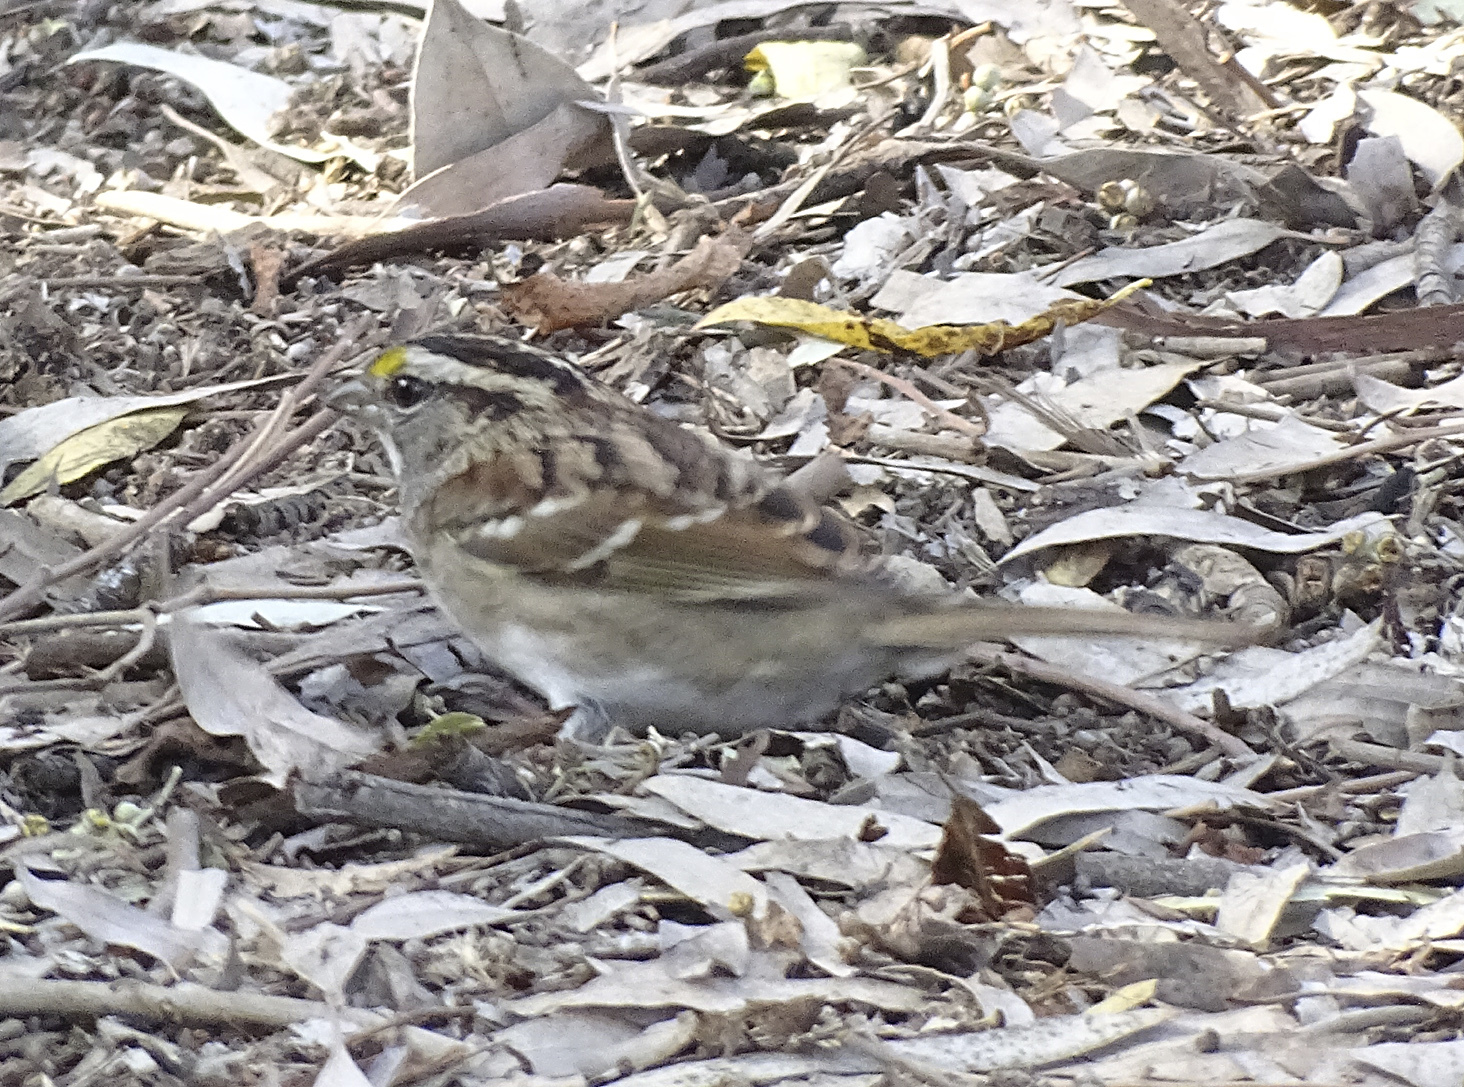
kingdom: Animalia
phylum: Chordata
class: Aves
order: Passeriformes
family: Passerellidae
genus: Zonotrichia
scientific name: Zonotrichia albicollis
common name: White-throated sparrow
